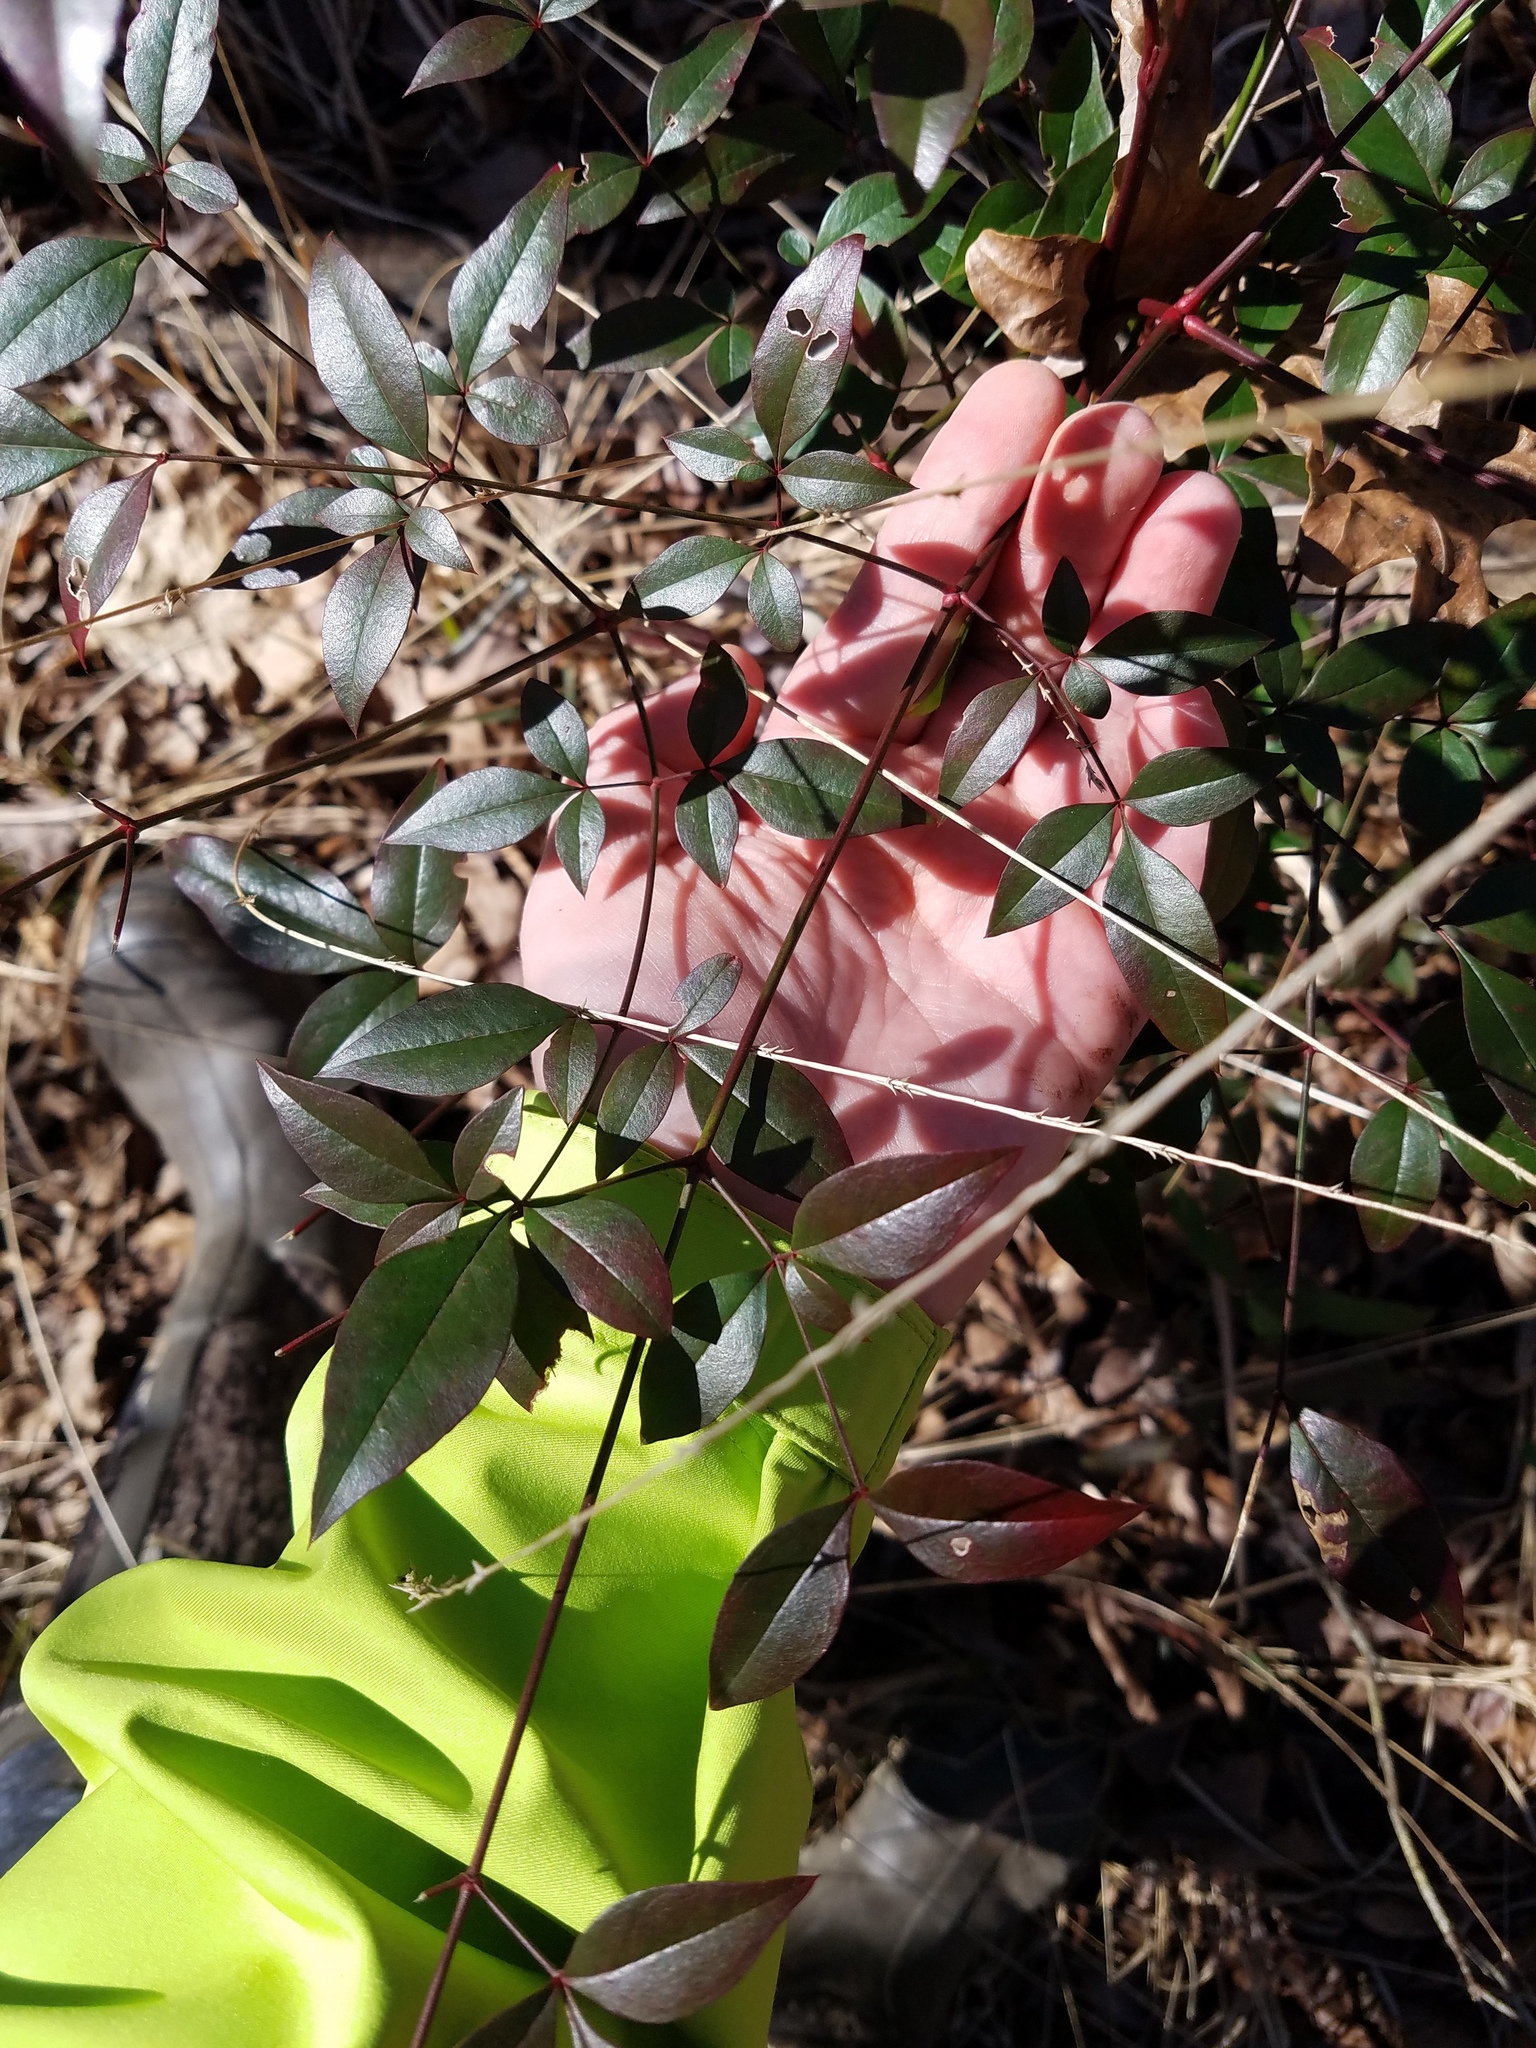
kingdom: Plantae
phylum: Tracheophyta
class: Magnoliopsida
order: Ranunculales
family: Berberidaceae
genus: Nandina
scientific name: Nandina domestica
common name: Sacred bamboo
